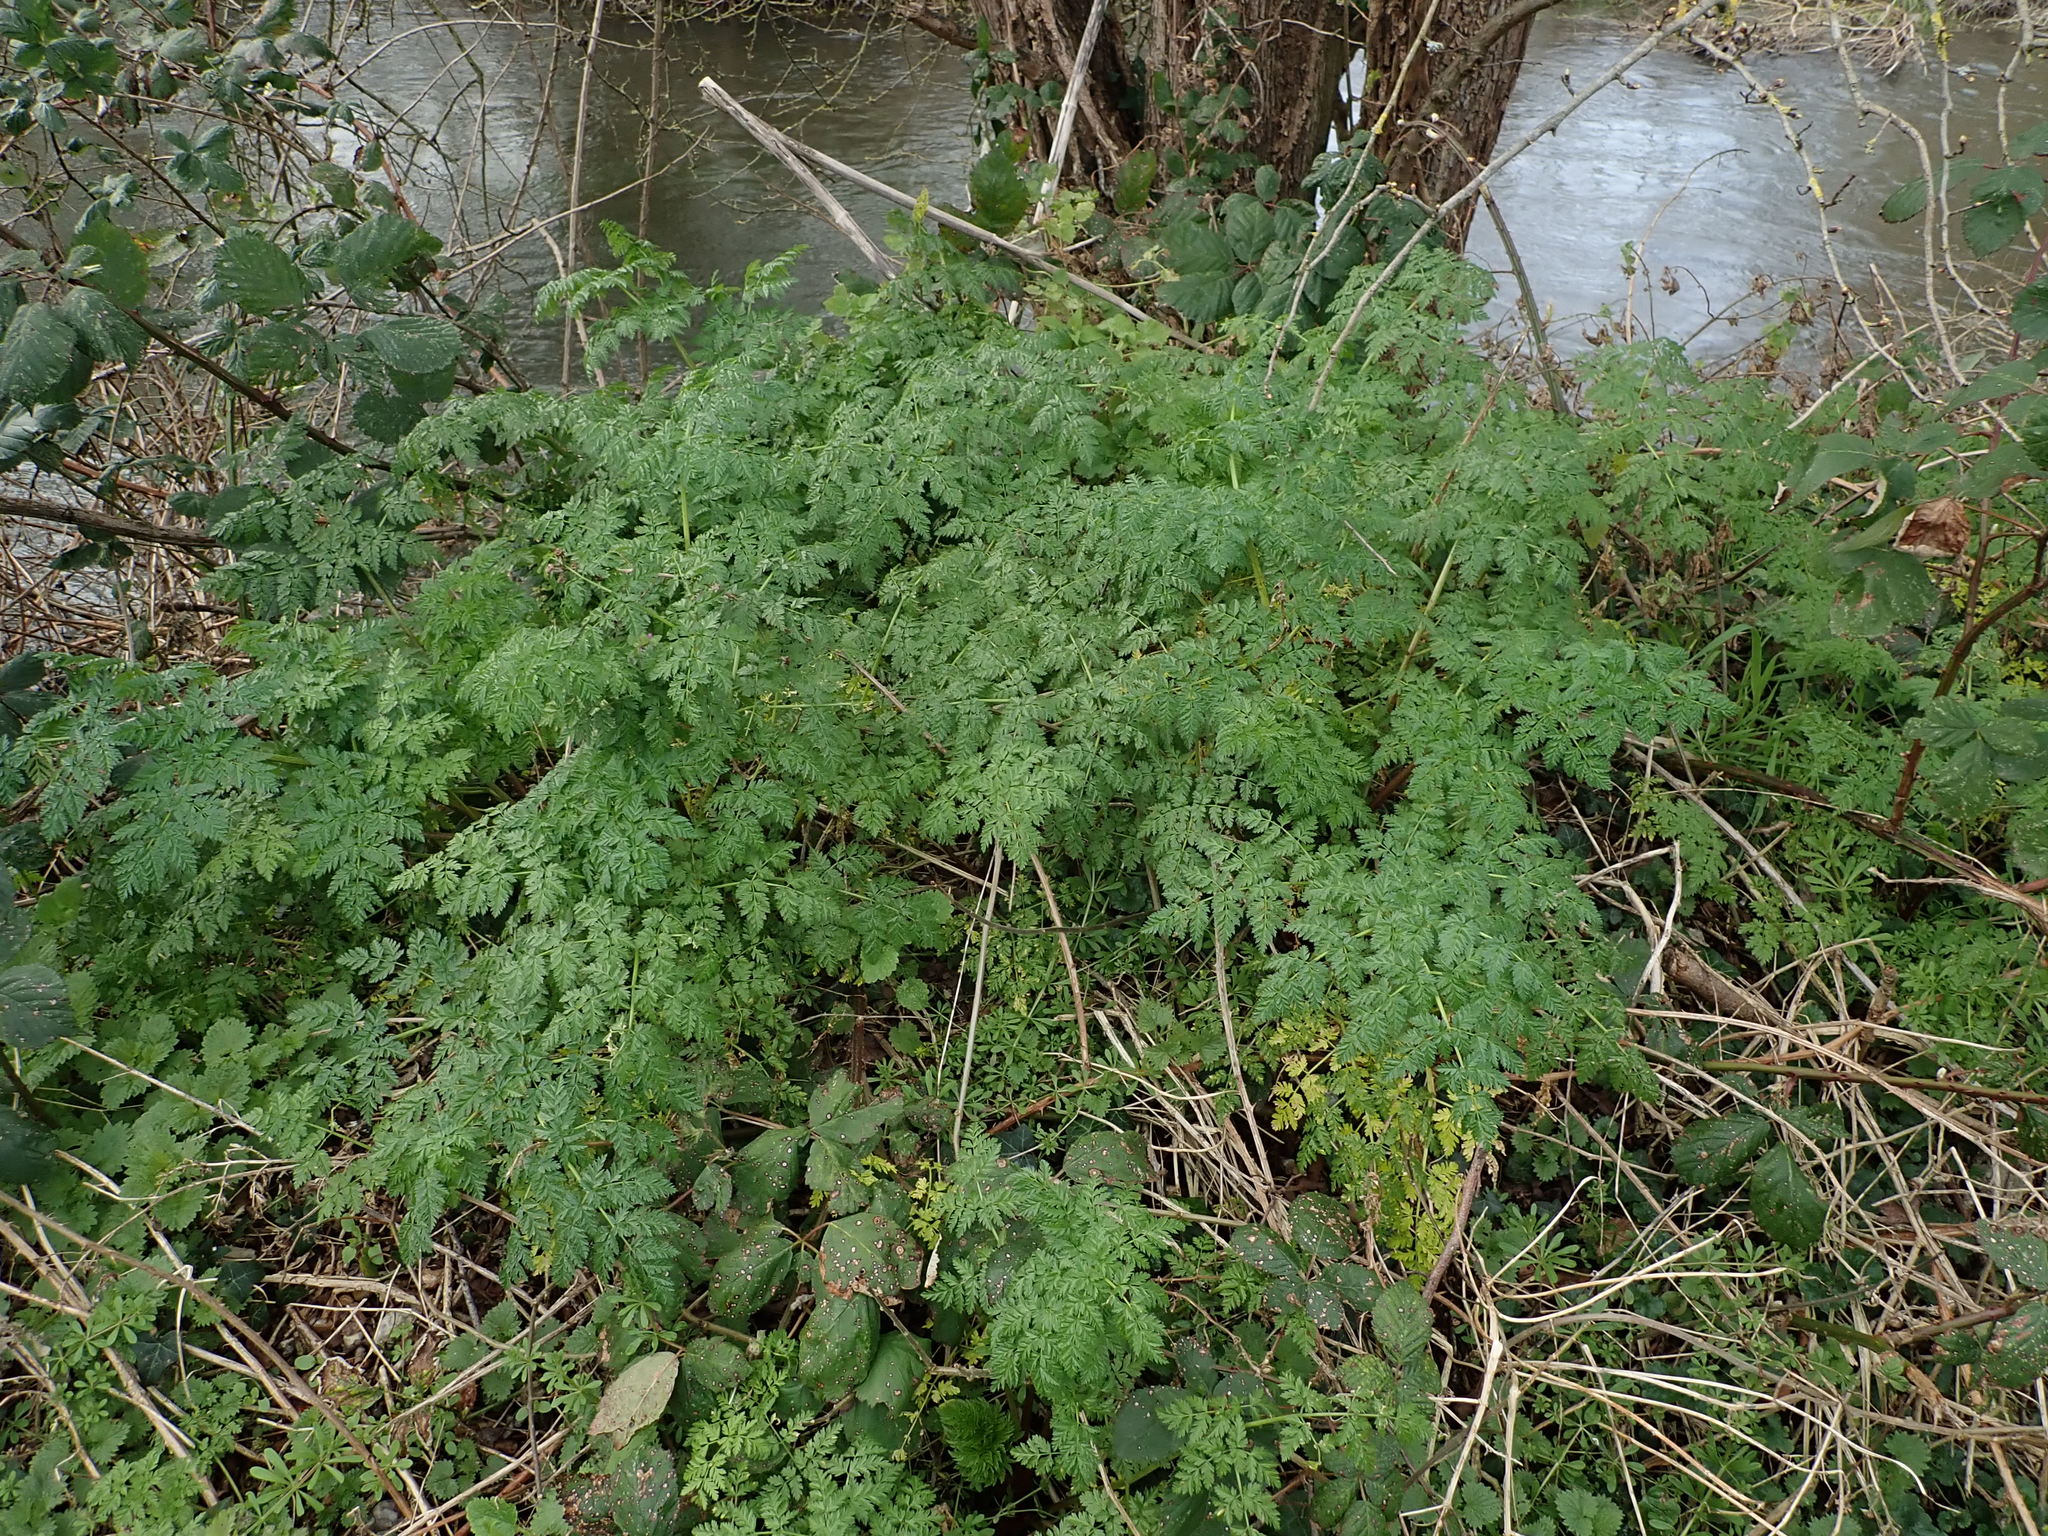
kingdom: Plantae
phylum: Tracheophyta
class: Magnoliopsida
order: Apiales
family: Apiaceae
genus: Conium
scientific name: Conium maculatum
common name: Hemlock
